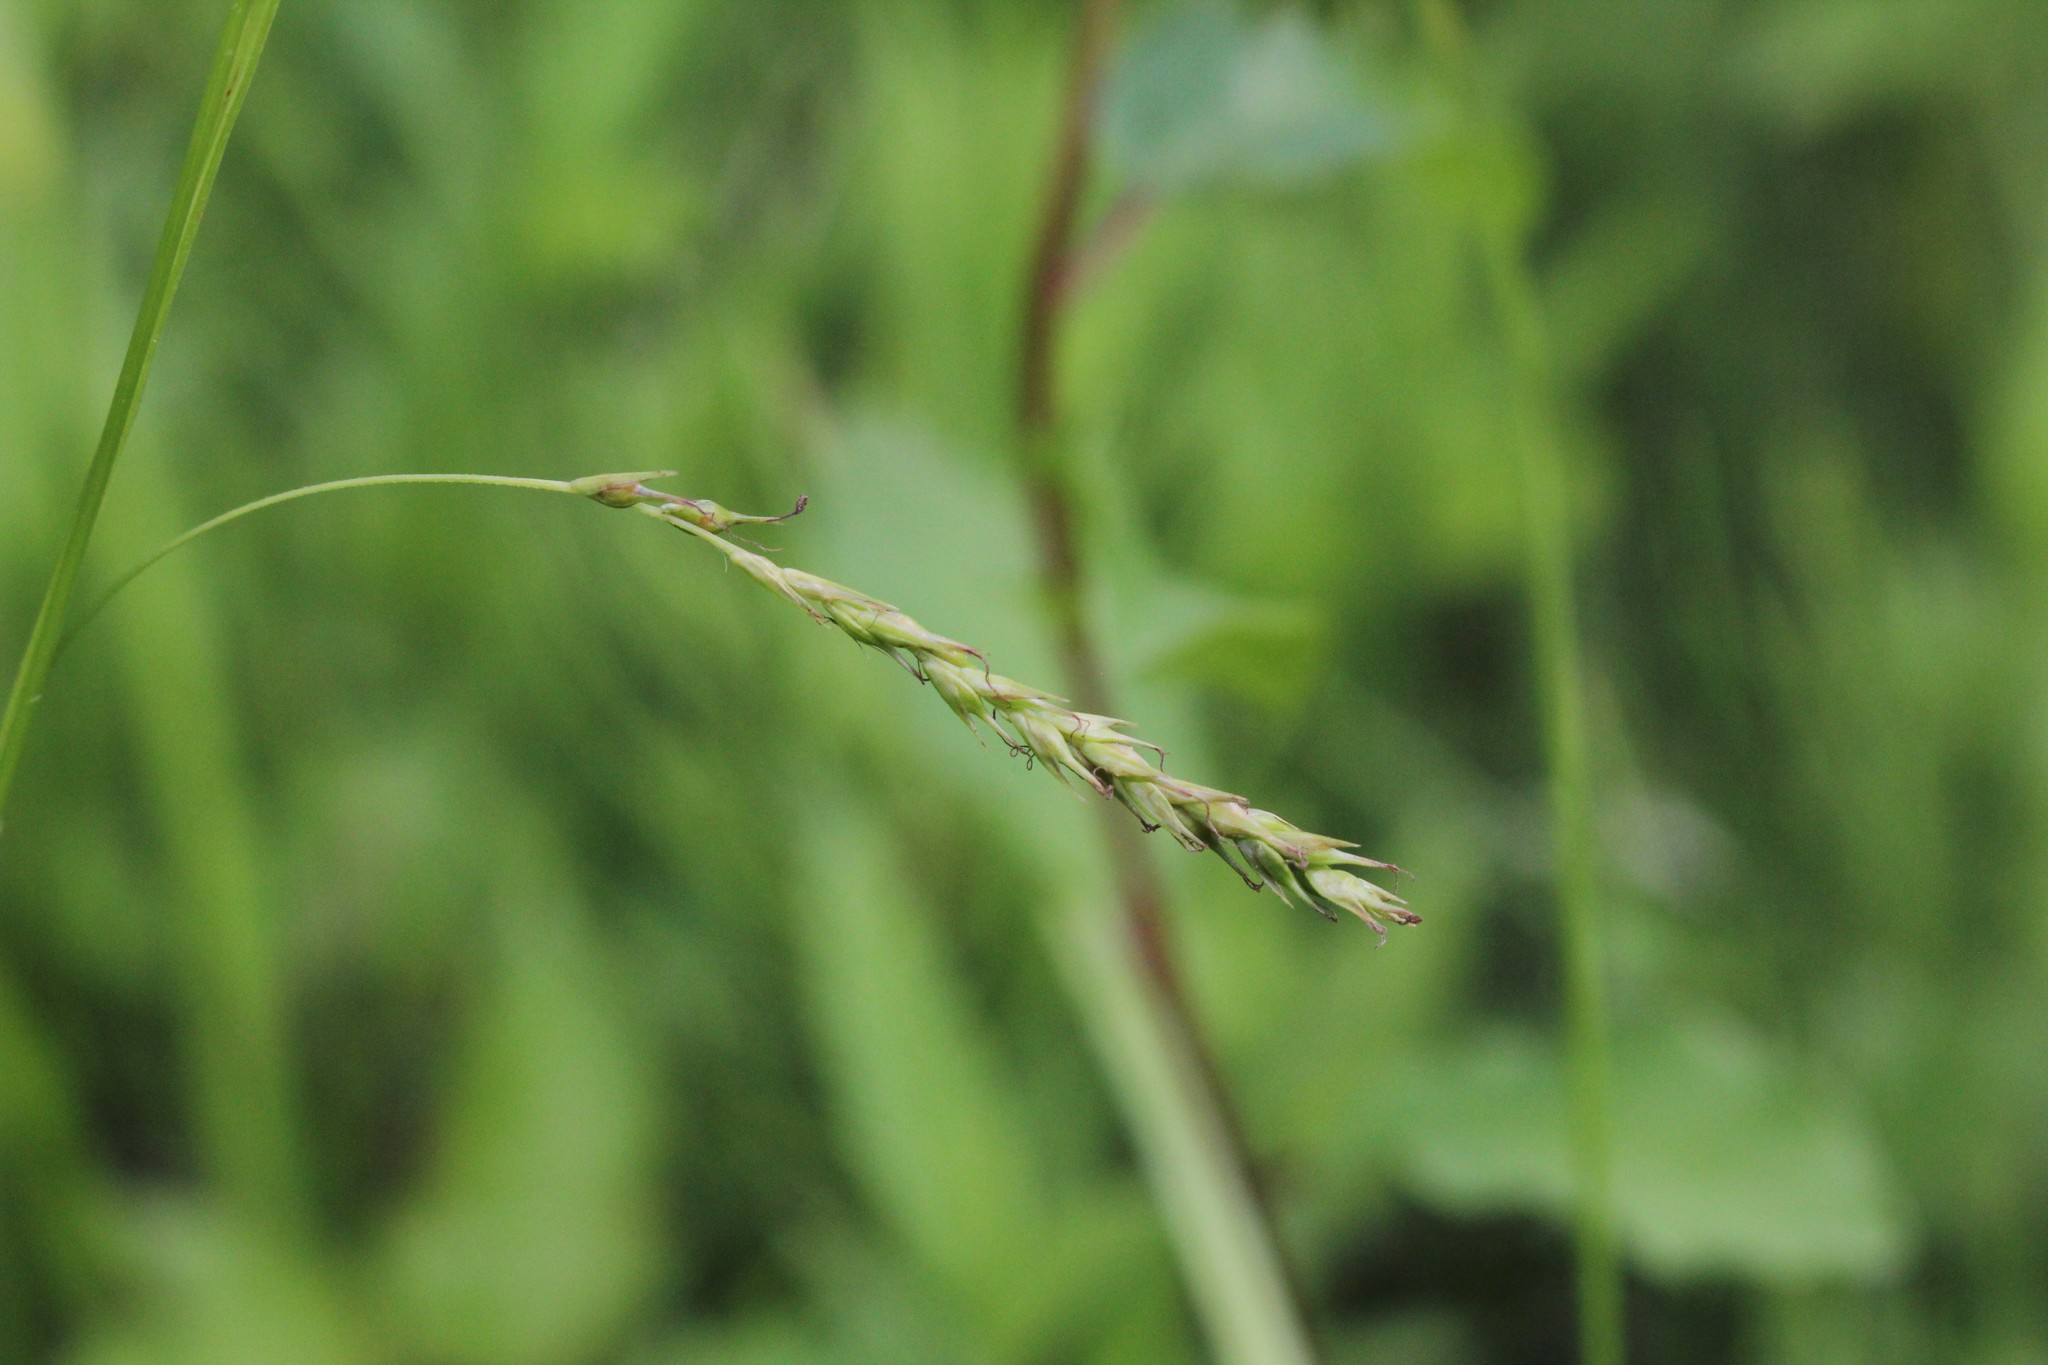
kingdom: Plantae
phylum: Tracheophyta
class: Liliopsida
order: Poales
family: Cyperaceae
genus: Carex
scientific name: Carex sylvatica
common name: Wood-sedge
